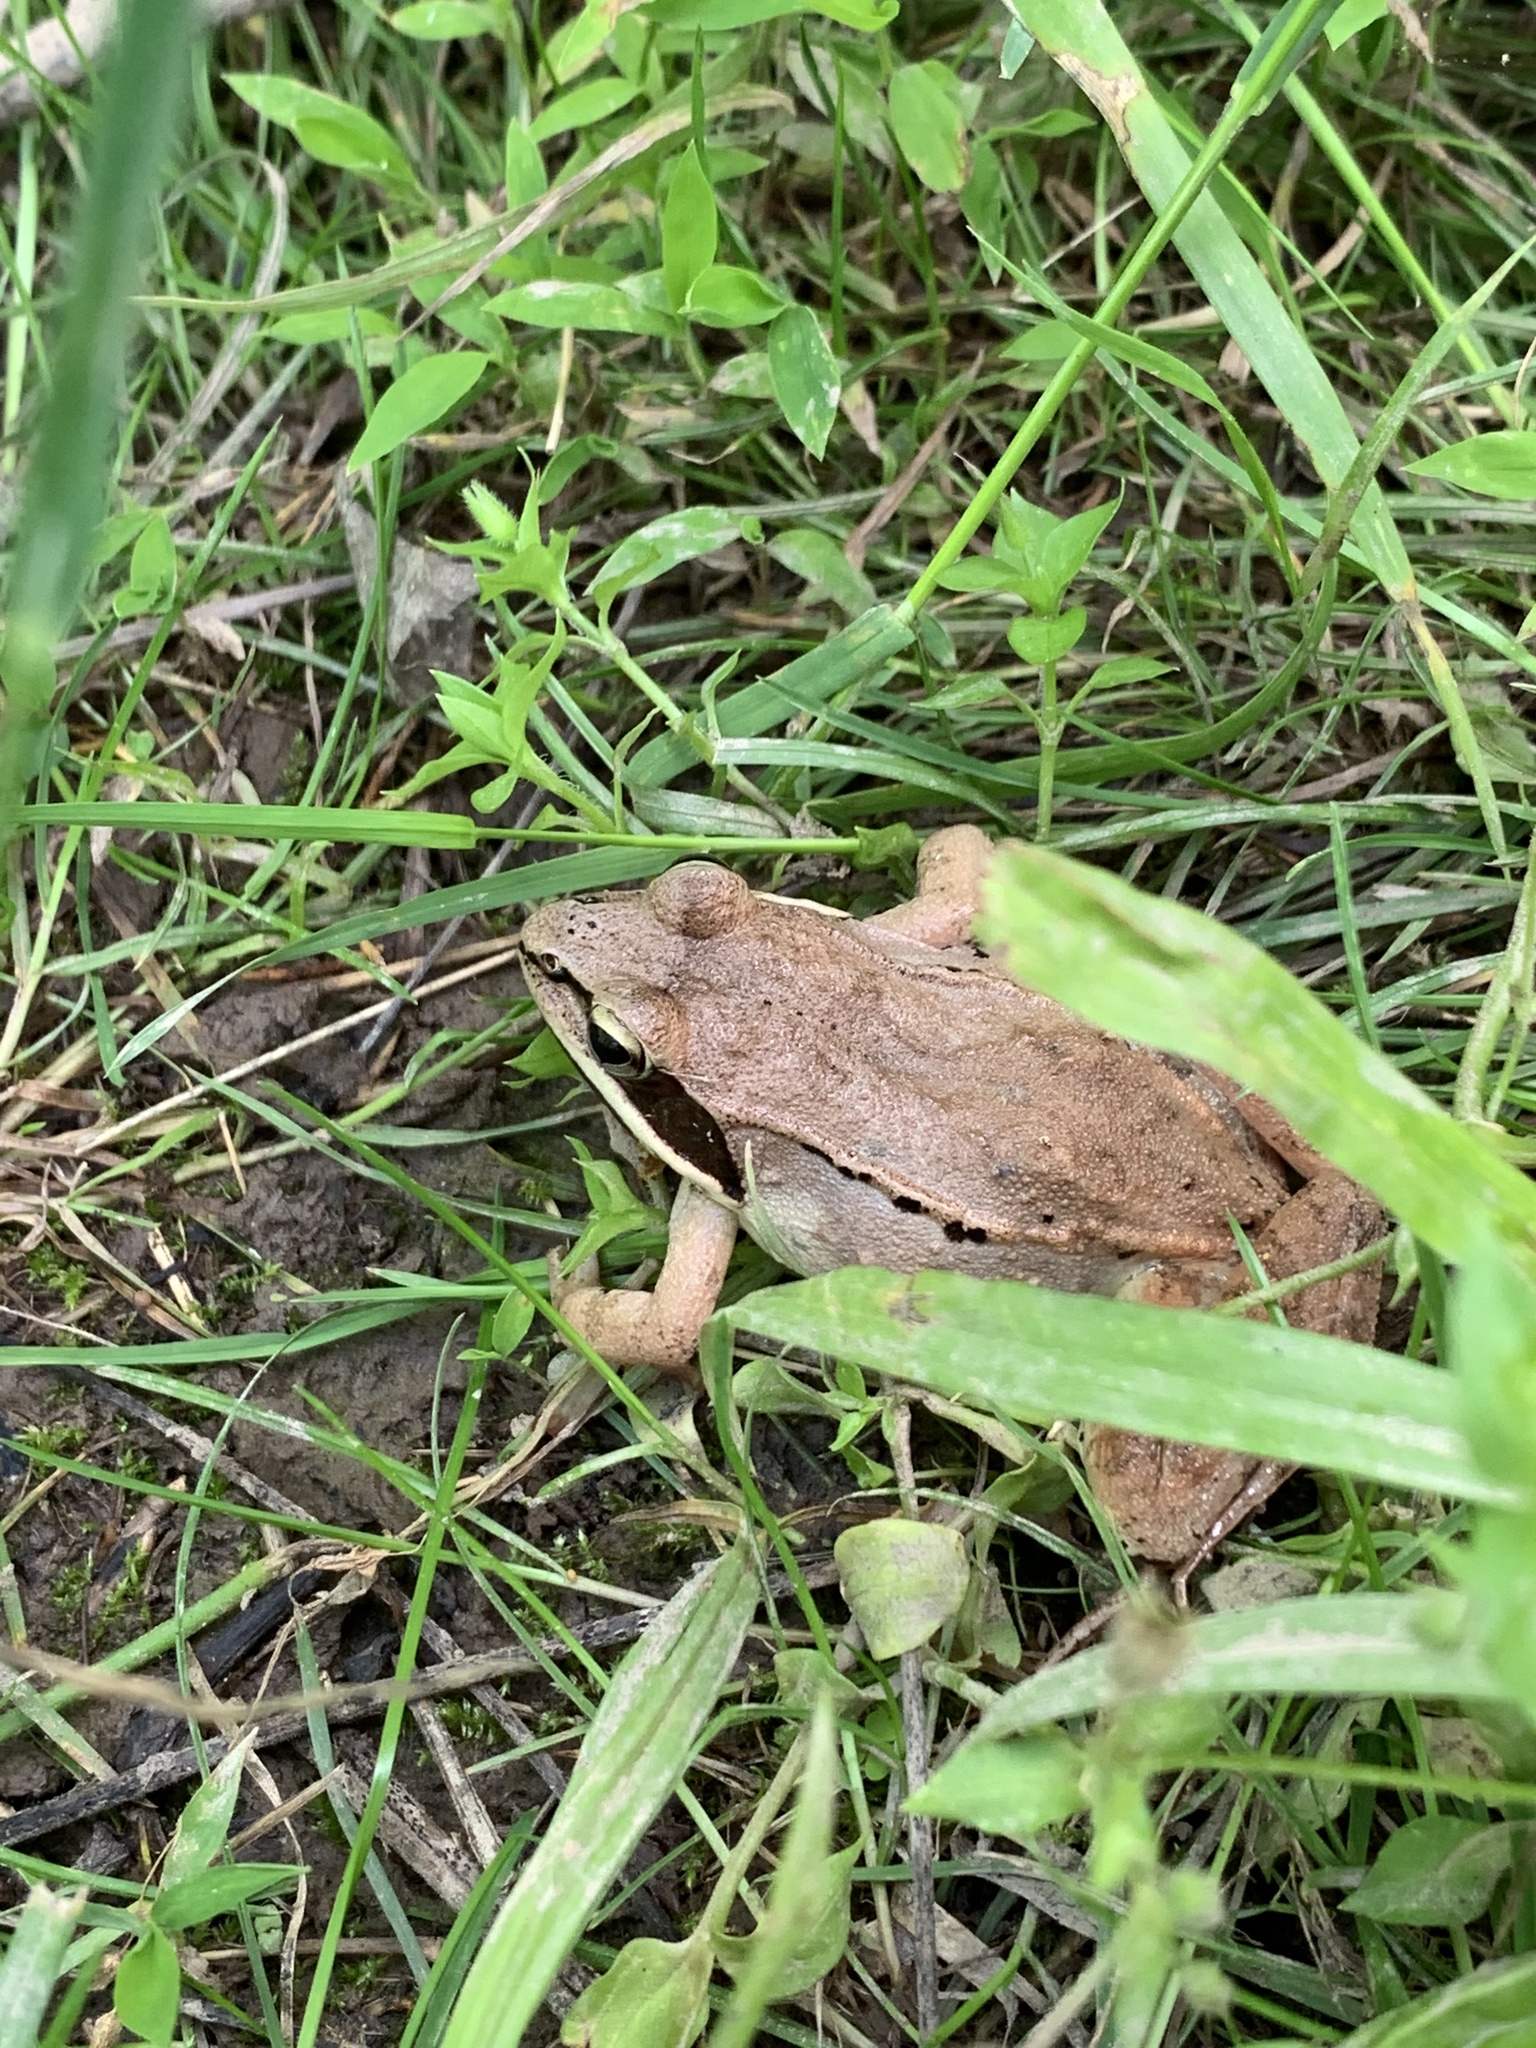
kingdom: Animalia
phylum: Chordata
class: Amphibia
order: Anura
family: Ranidae
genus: Lithobates
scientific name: Lithobates sylvaticus
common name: Wood frog
